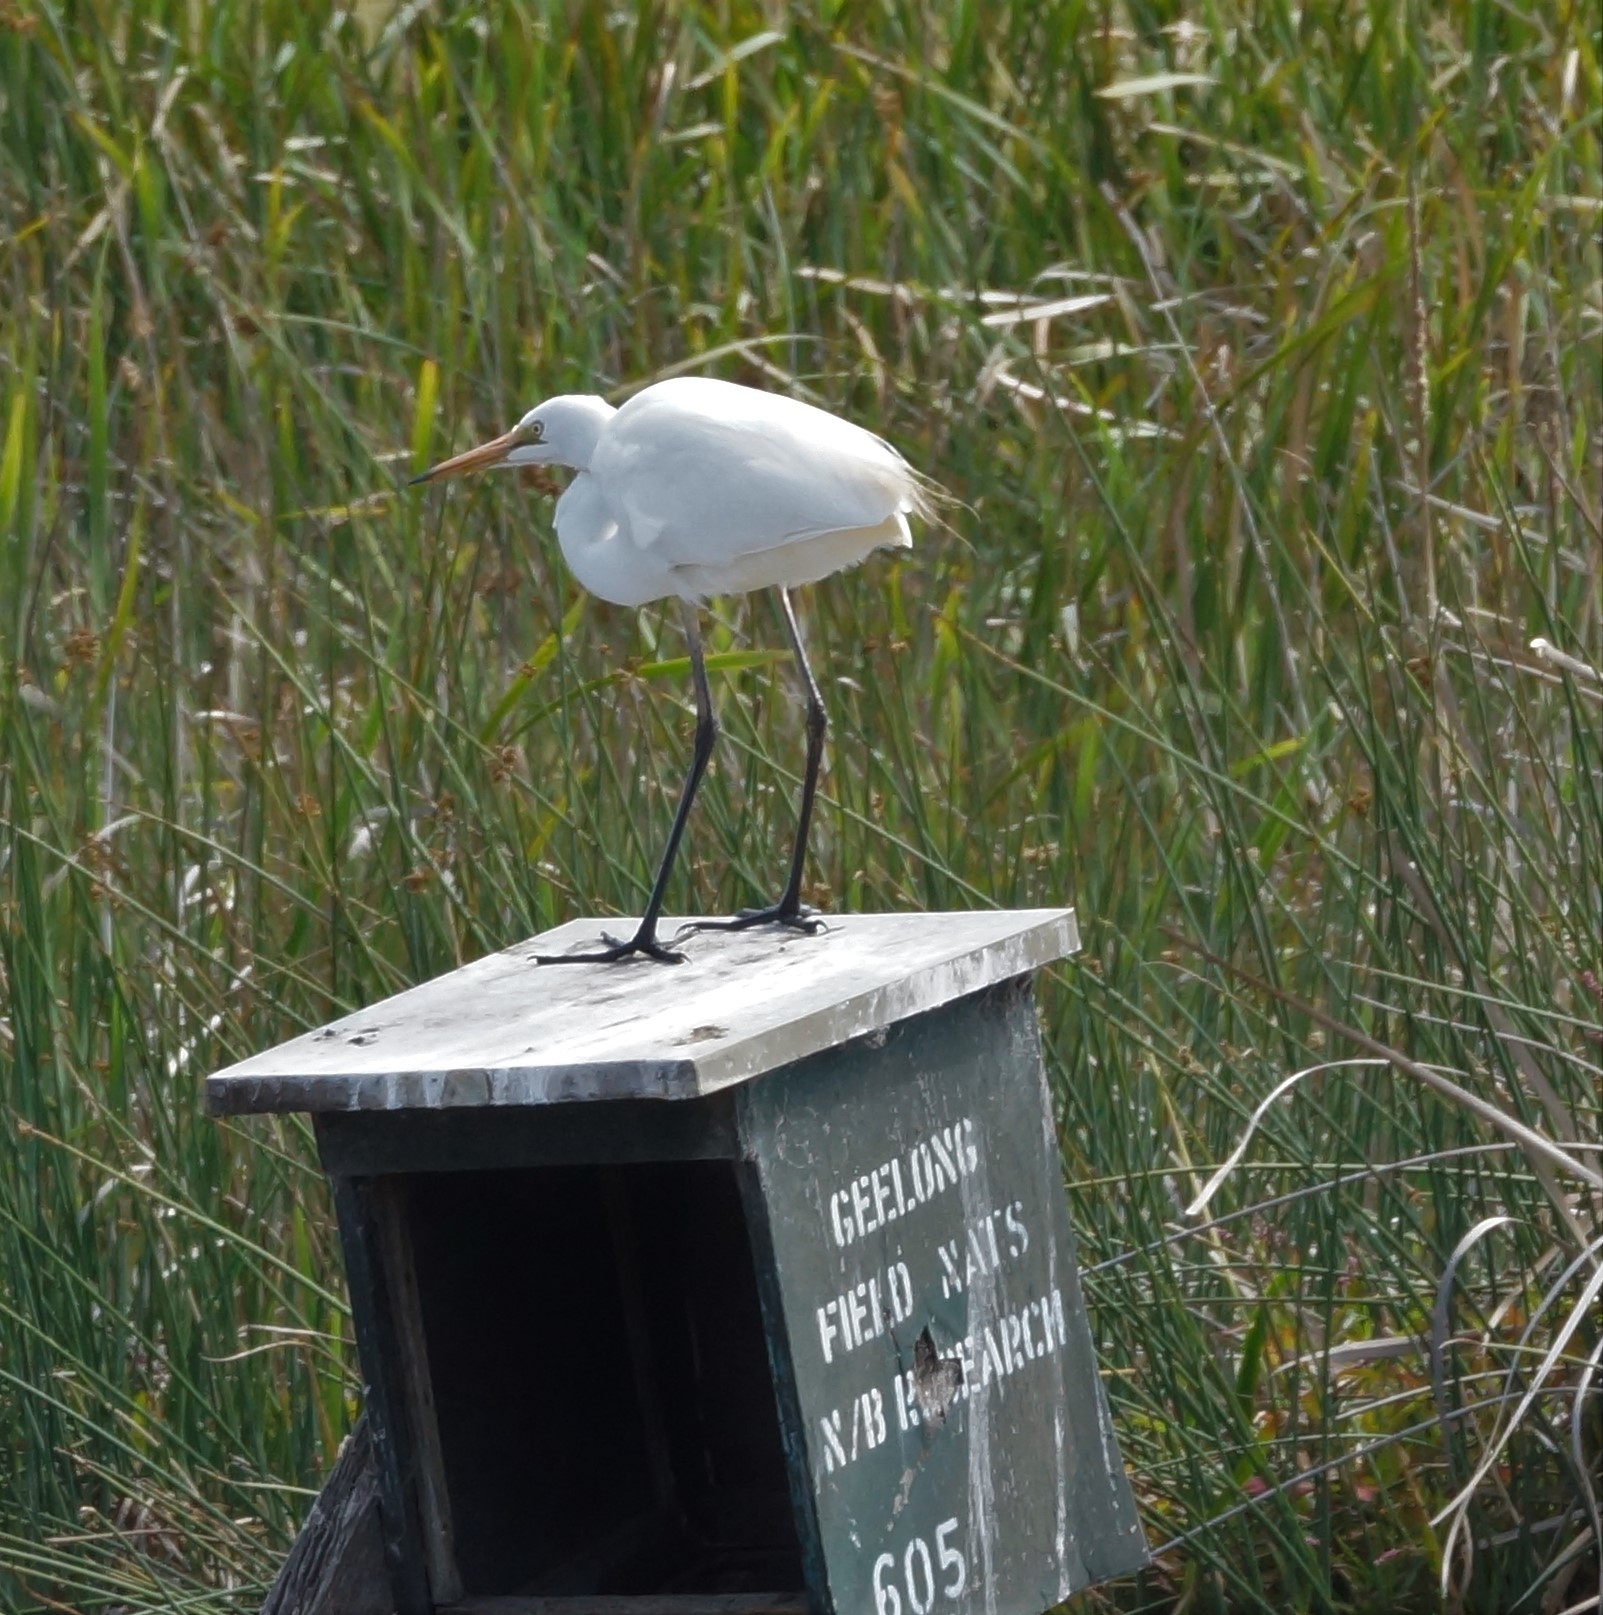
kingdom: Animalia
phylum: Chordata
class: Aves
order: Pelecaniformes
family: Ardeidae
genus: Ardea
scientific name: Ardea modesta
